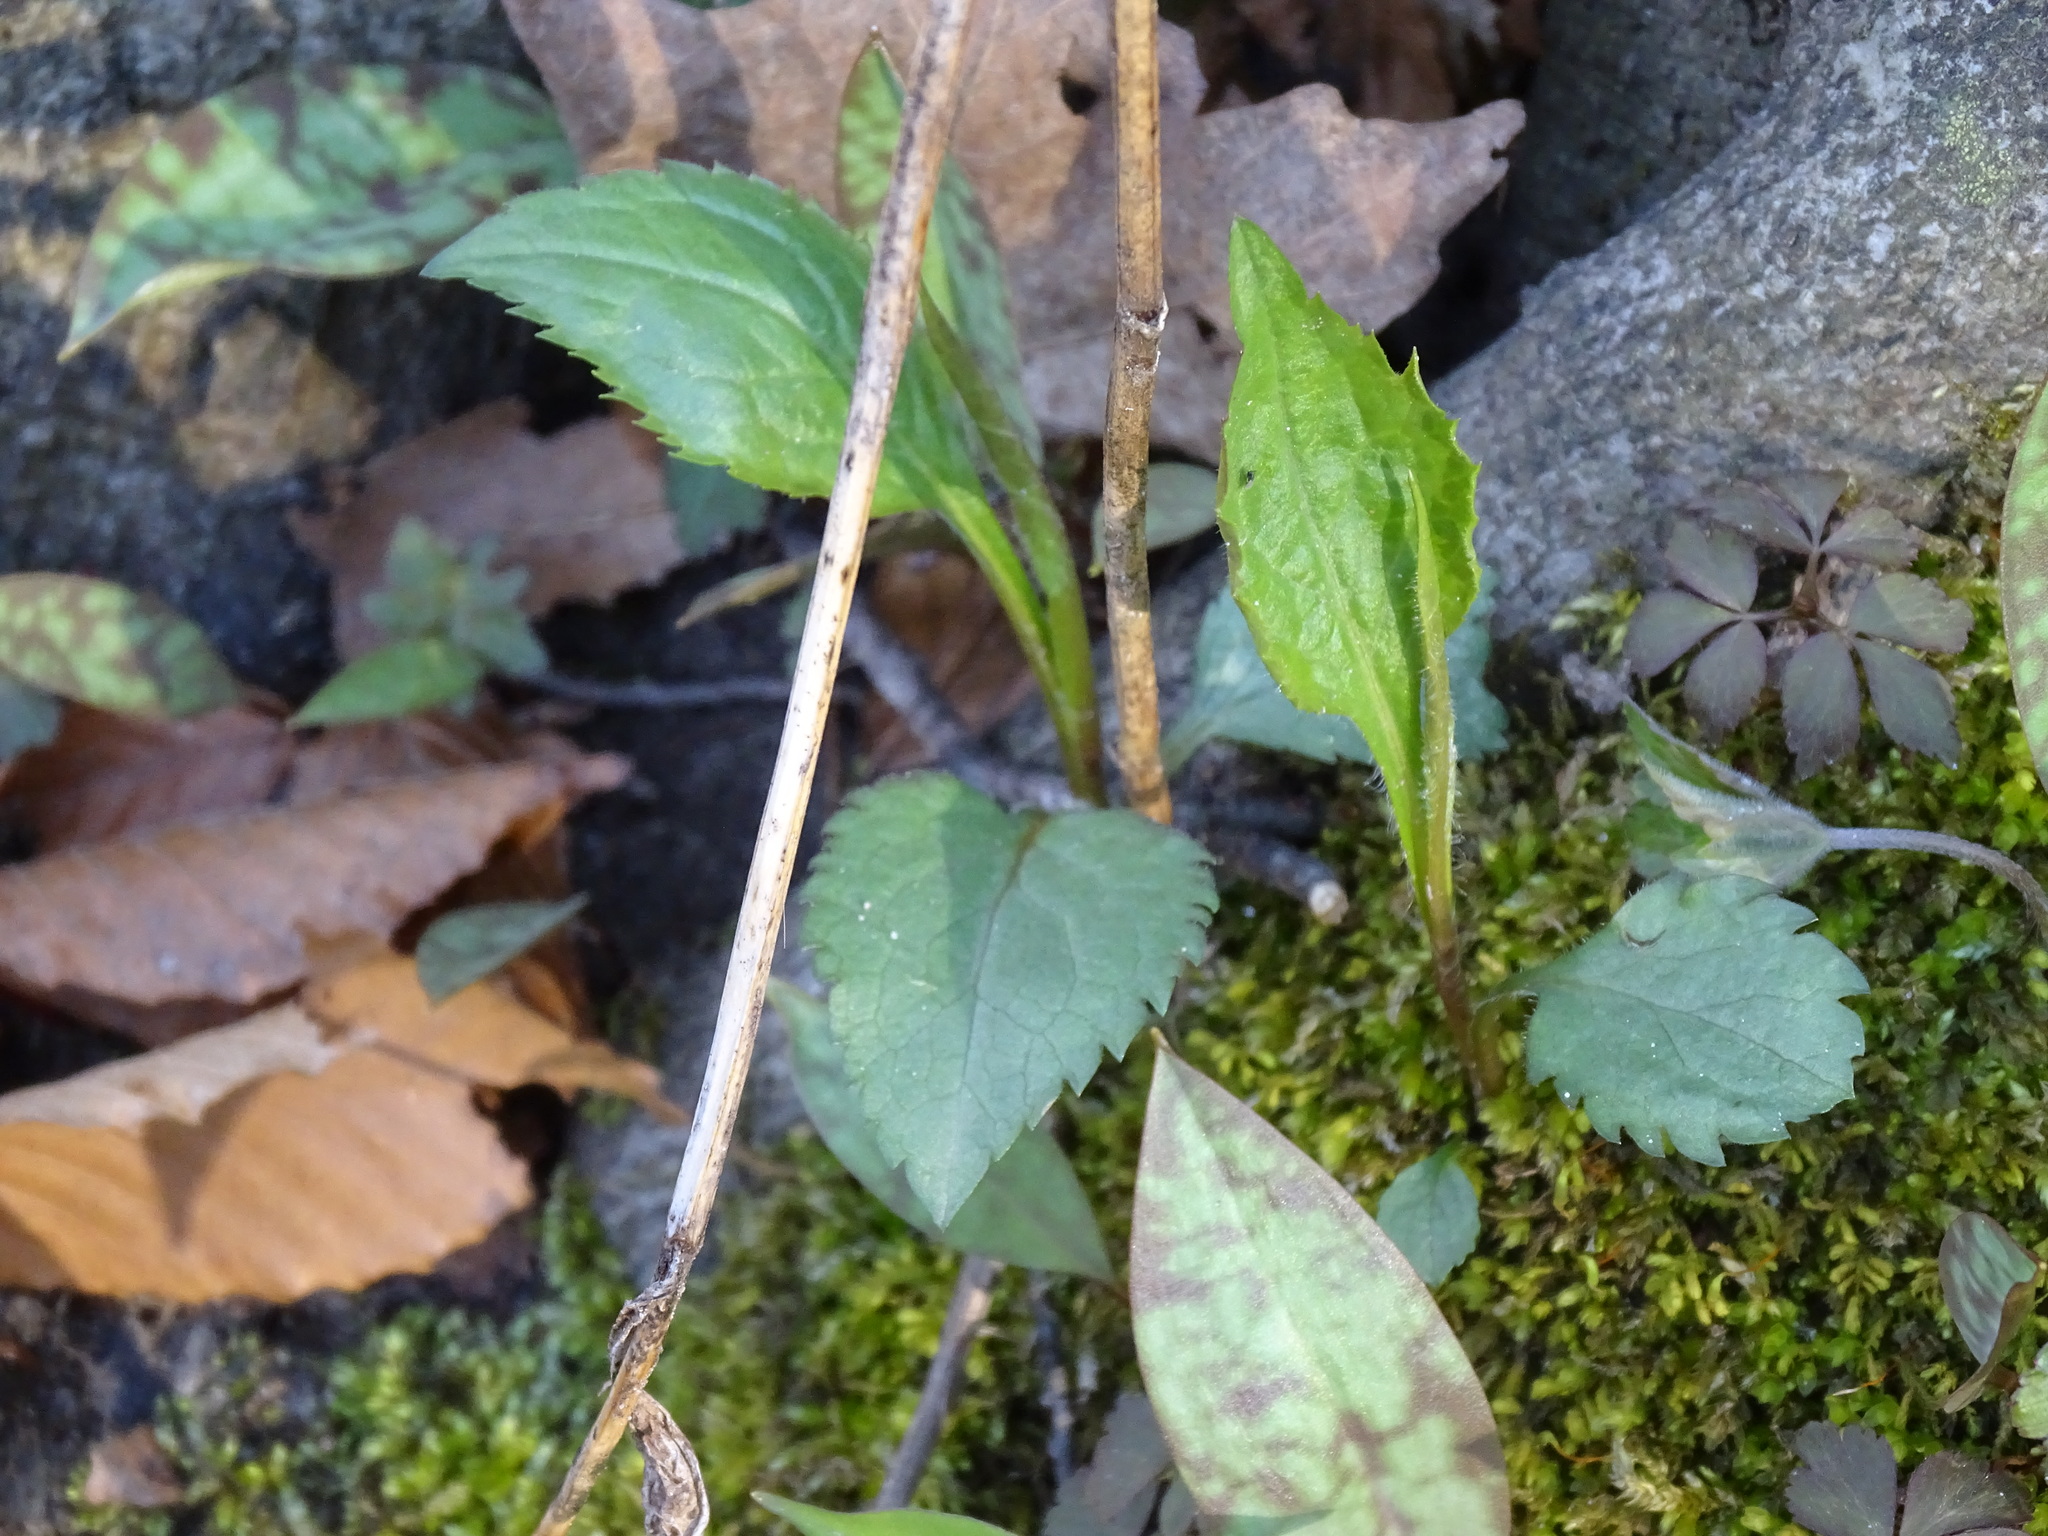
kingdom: Plantae
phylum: Tracheophyta
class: Magnoliopsida
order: Asterales
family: Asteraceae
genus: Solidago
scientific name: Solidago flexicaulis
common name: Zig-zag goldenrod
